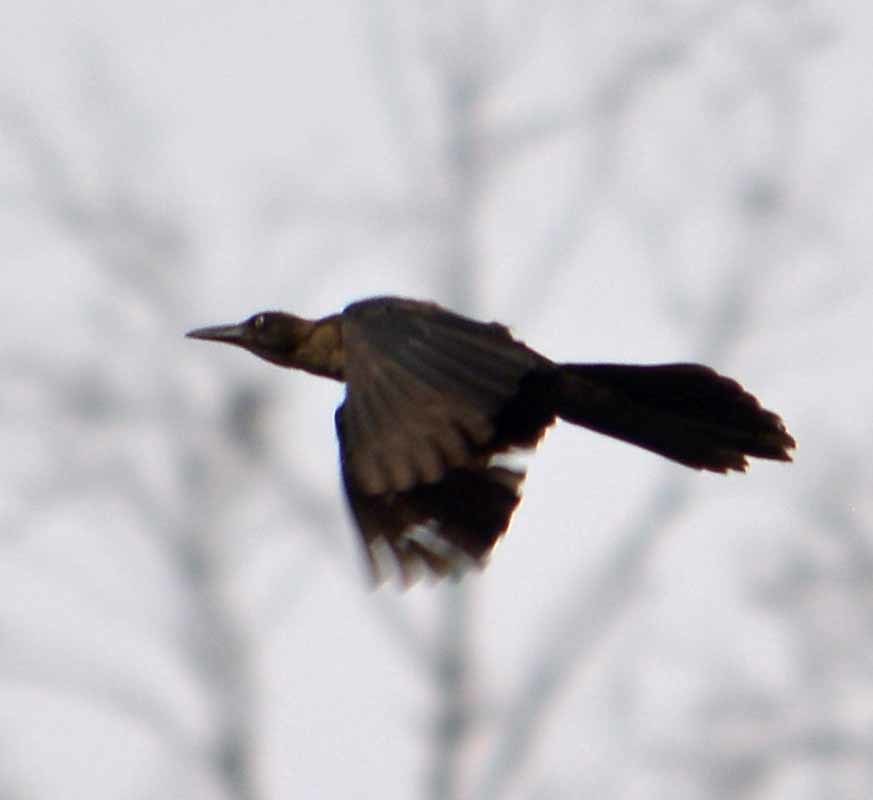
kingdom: Animalia
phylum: Chordata
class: Aves
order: Passeriformes
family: Icteridae
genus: Quiscalus
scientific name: Quiscalus mexicanus
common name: Great-tailed grackle
